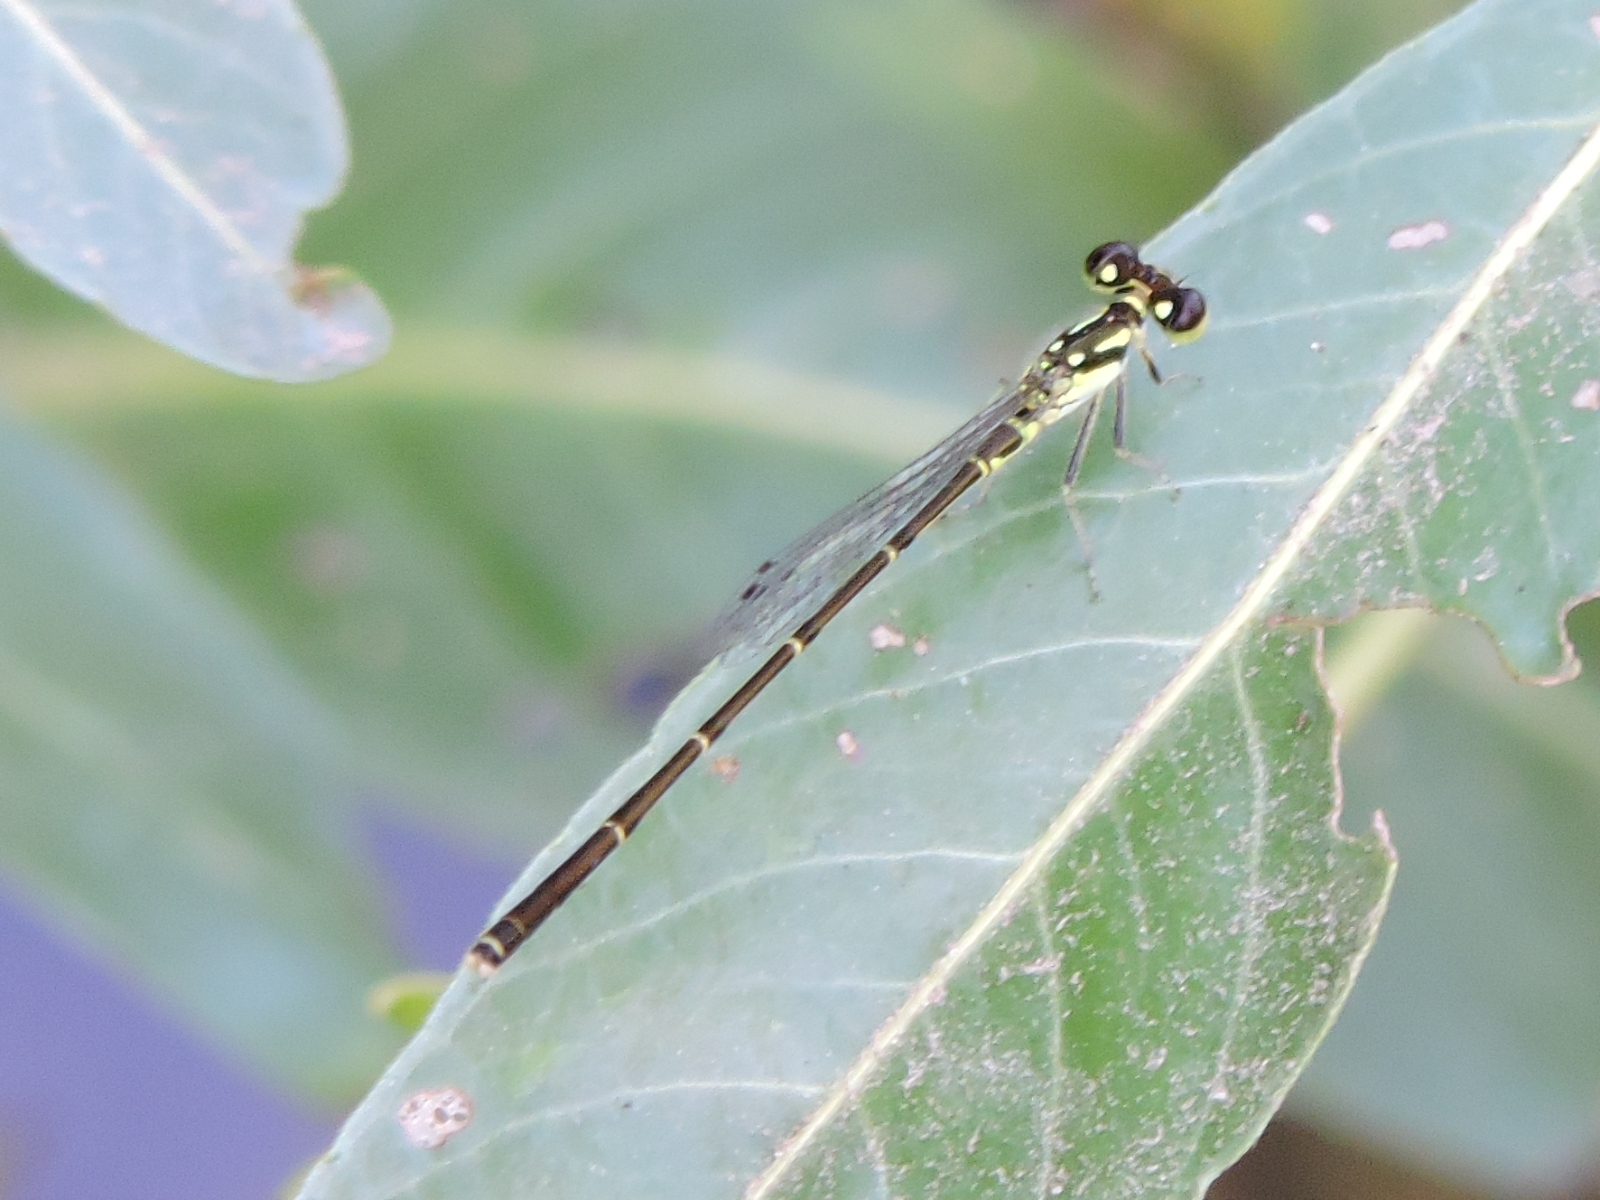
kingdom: Animalia
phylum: Arthropoda
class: Insecta
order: Odonata
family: Coenagrionidae
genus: Ischnura
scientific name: Ischnura posita
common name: Fragile forktail
